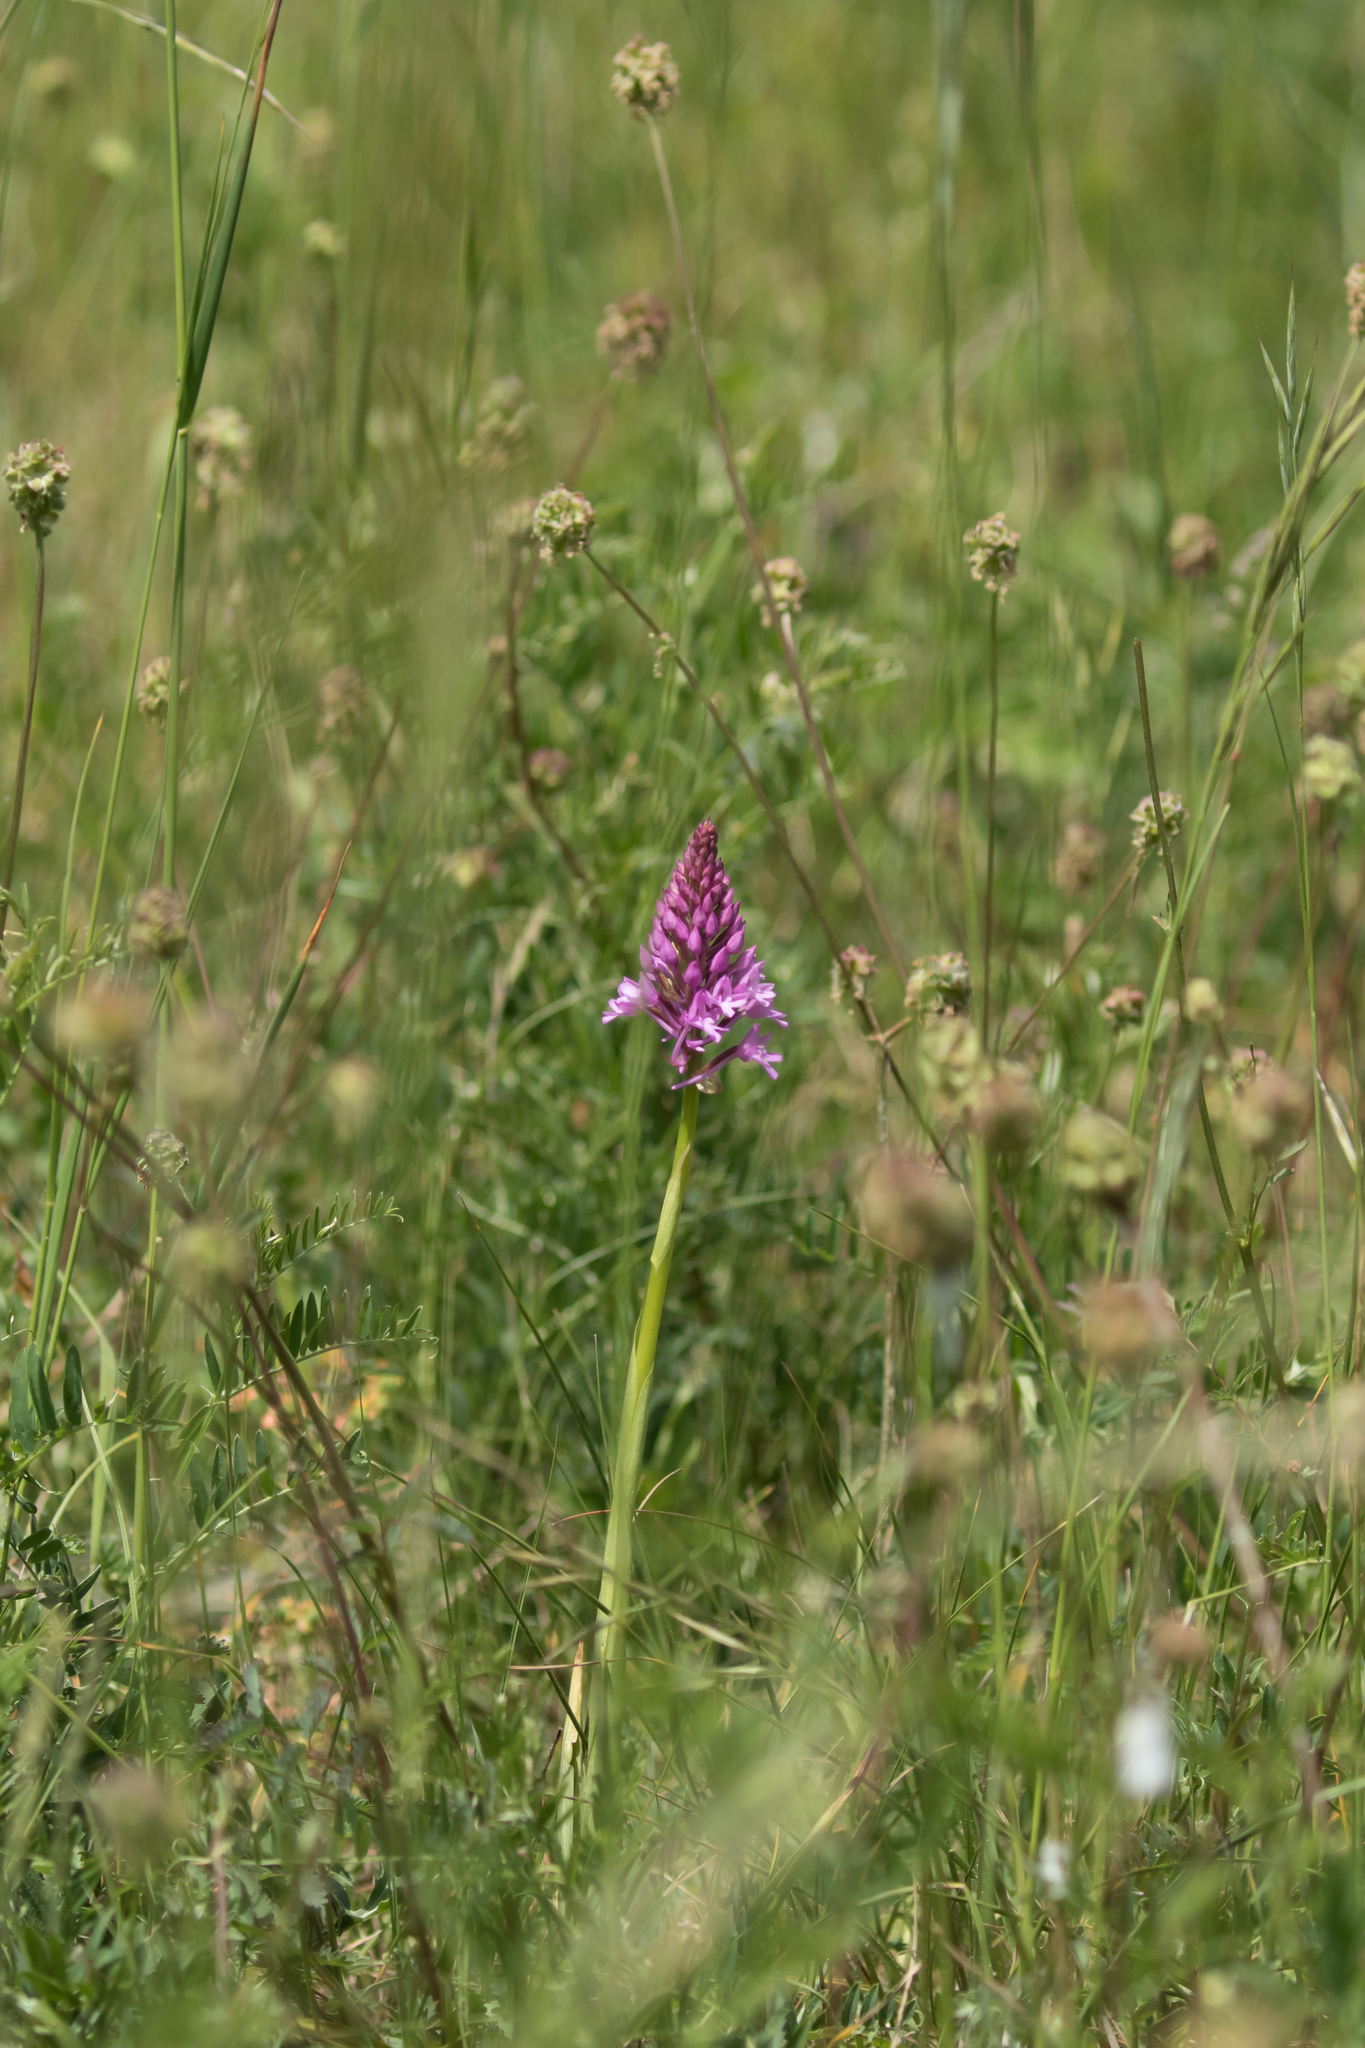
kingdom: Plantae
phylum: Tracheophyta
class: Liliopsida
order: Asparagales
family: Orchidaceae
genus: Anacamptis
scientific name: Anacamptis pyramidalis
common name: Pyramidal orchid
